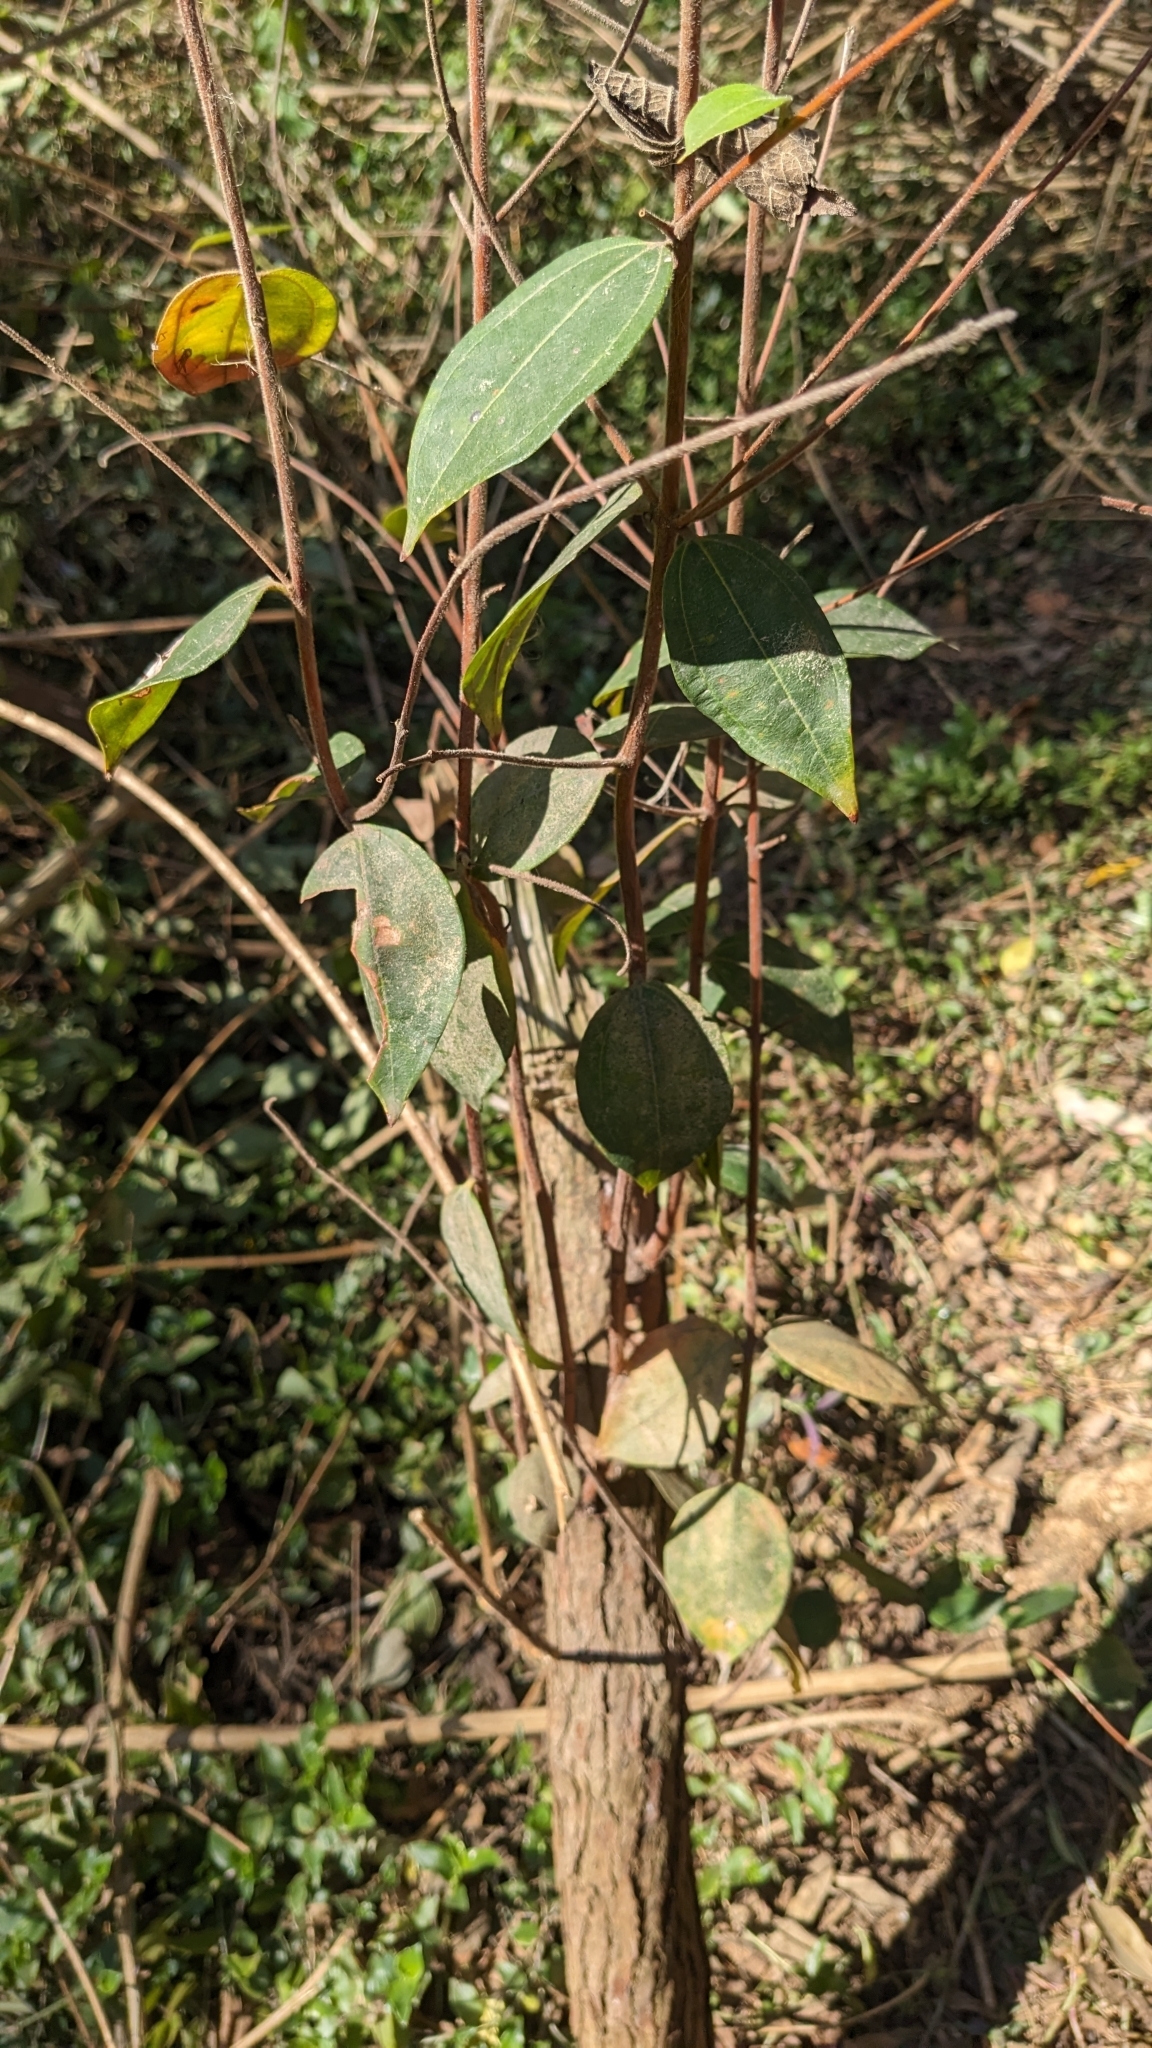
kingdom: Plantae
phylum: Tracheophyta
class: Magnoliopsida
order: Myrtales
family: Myrtaceae
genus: Rhodamnia
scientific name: Rhodamnia rubescens
